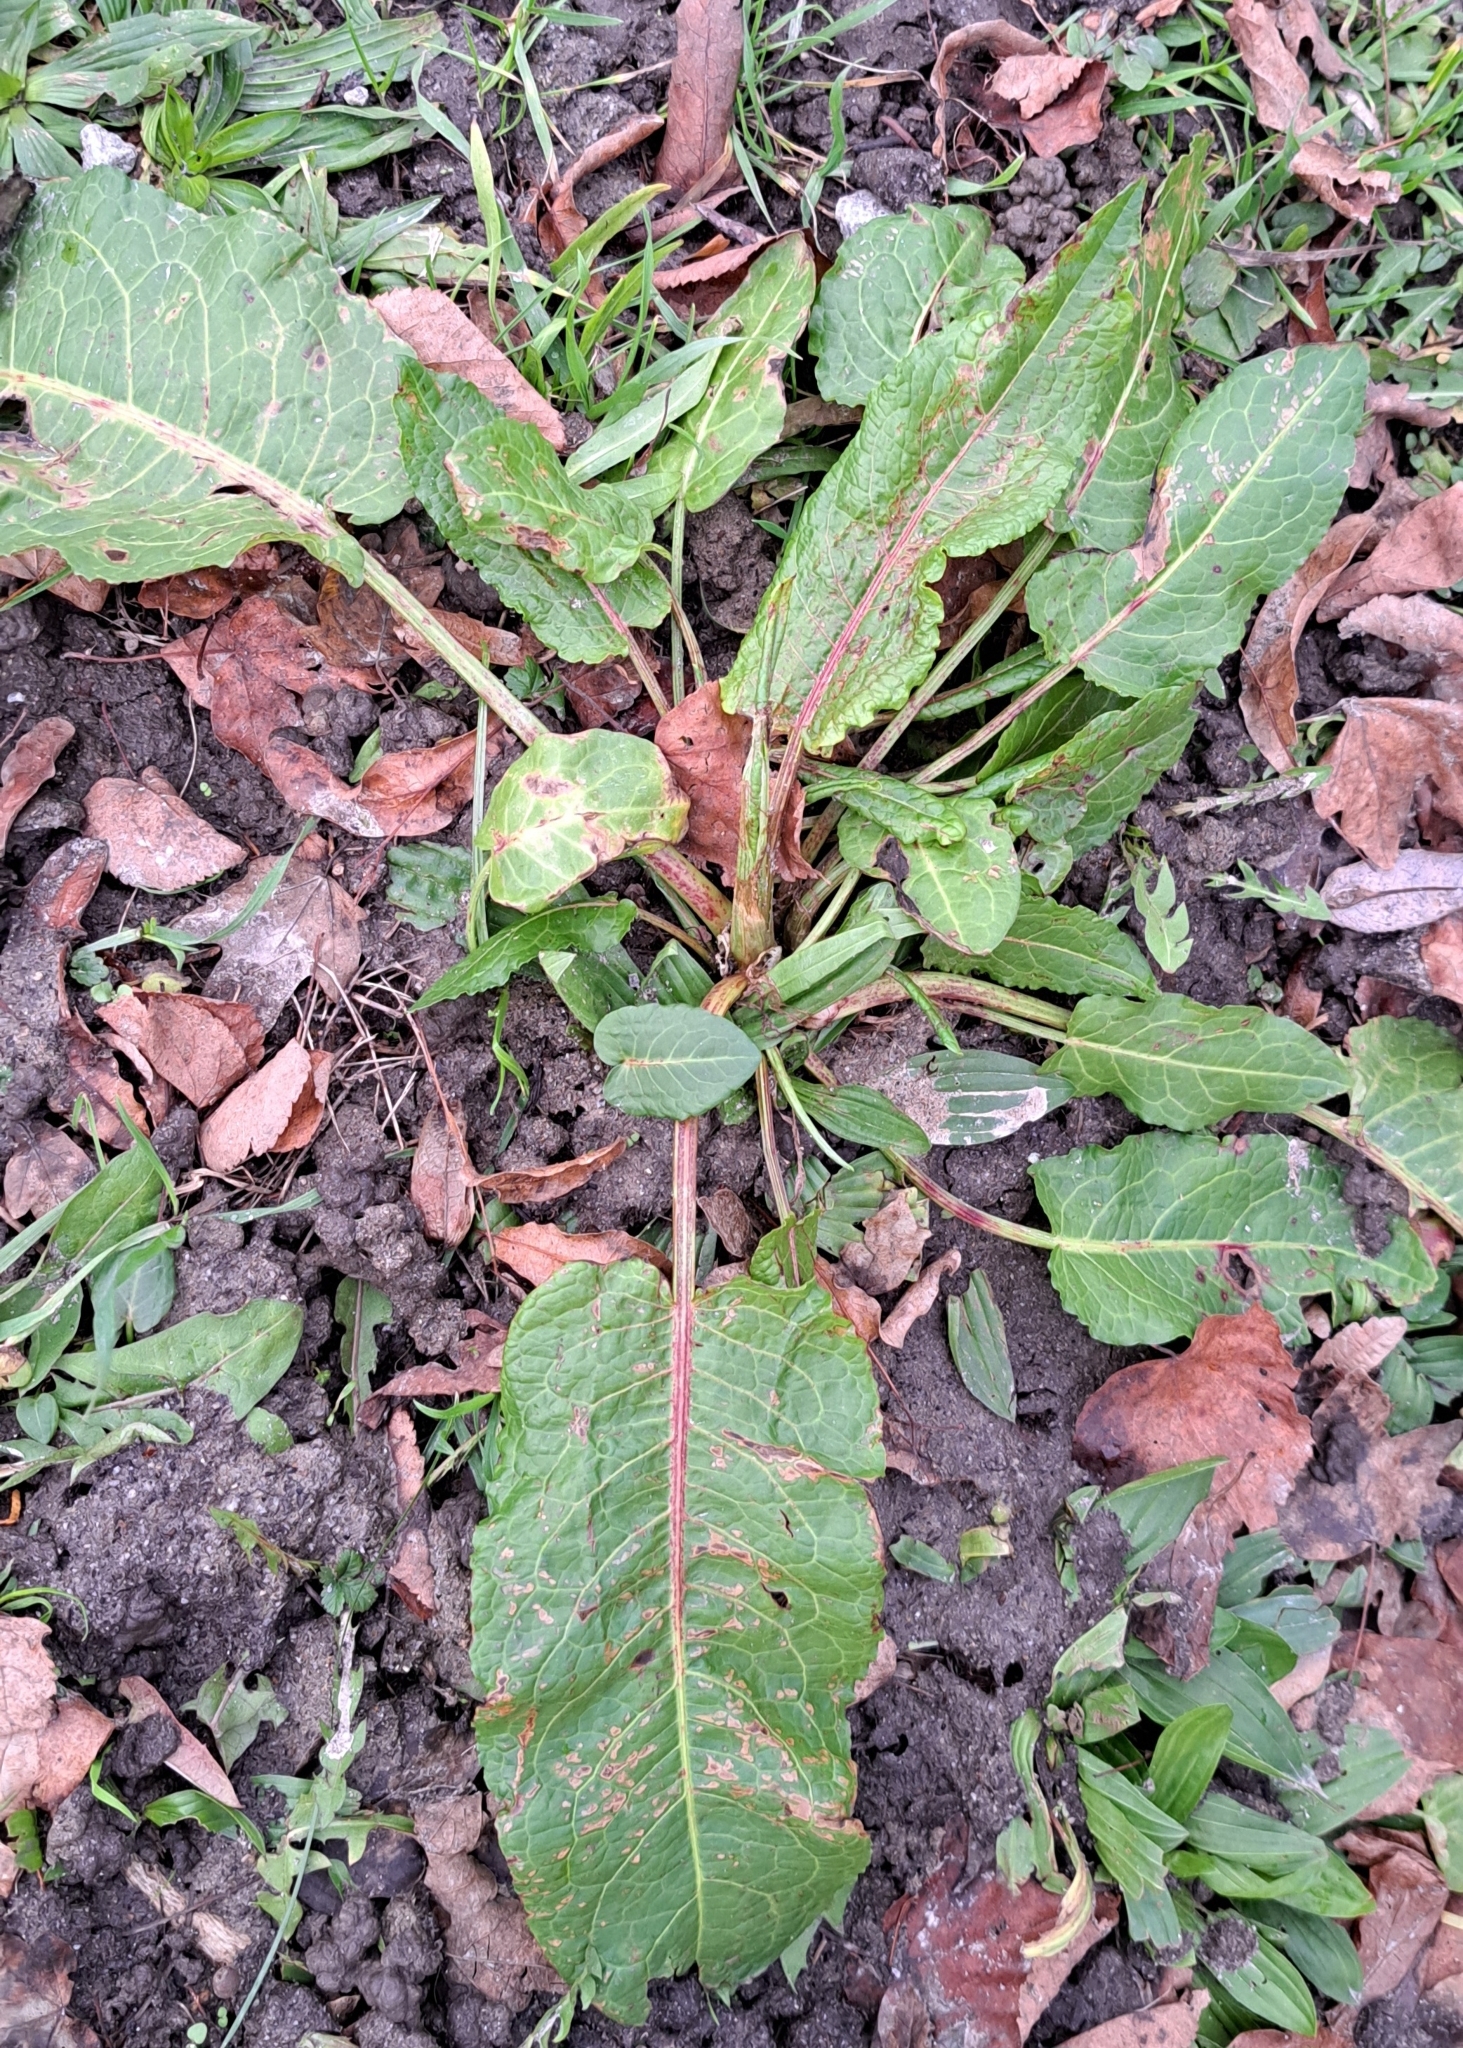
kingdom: Plantae
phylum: Tracheophyta
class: Magnoliopsida
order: Caryophyllales
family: Polygonaceae
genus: Rumex
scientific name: Rumex obtusifolius
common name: Bitter dock
